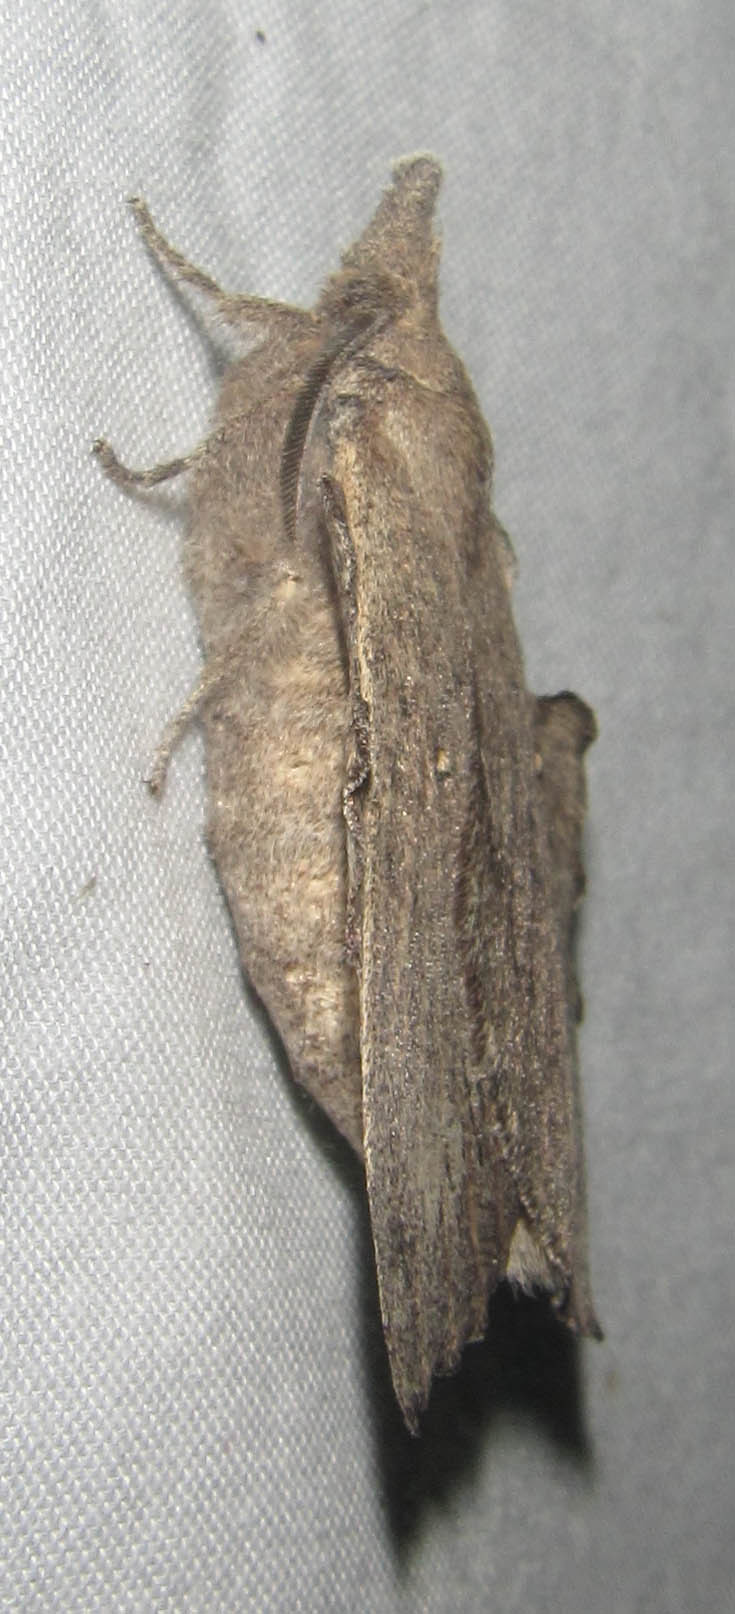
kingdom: Animalia
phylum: Arthropoda
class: Insecta
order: Lepidoptera
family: Lasiocampidae
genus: Rhinobombyx
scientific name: Rhinobombyx cuneata
